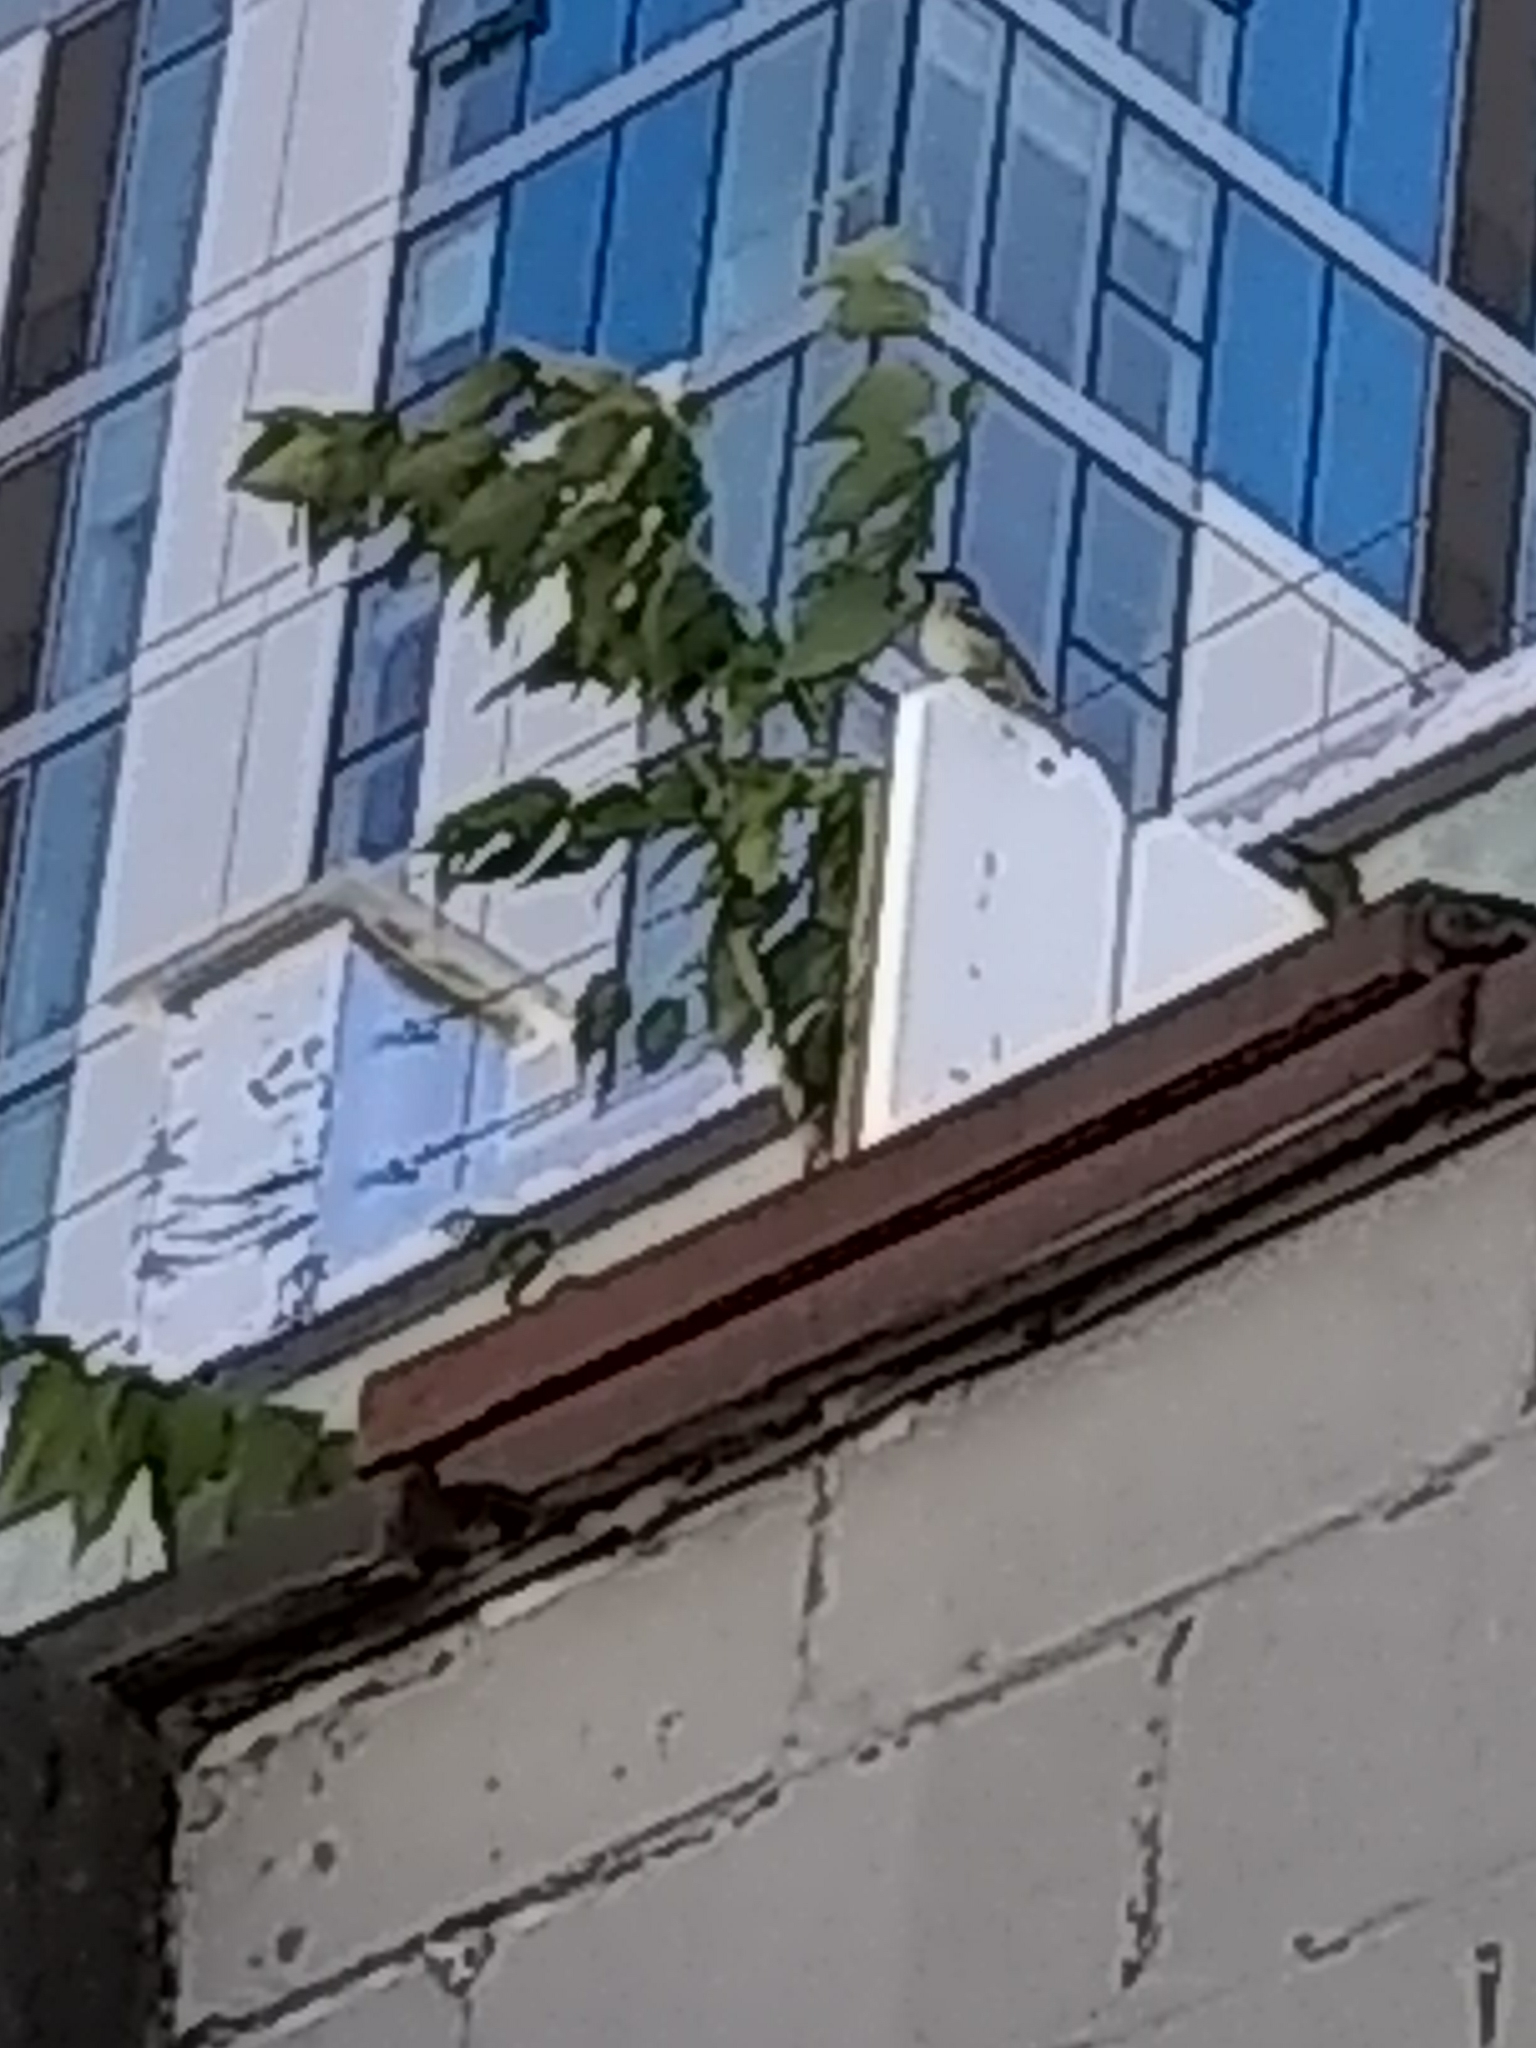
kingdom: Animalia
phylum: Chordata
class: Aves
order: Passeriformes
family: Passeridae
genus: Passer
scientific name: Passer domesticus
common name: House sparrow
